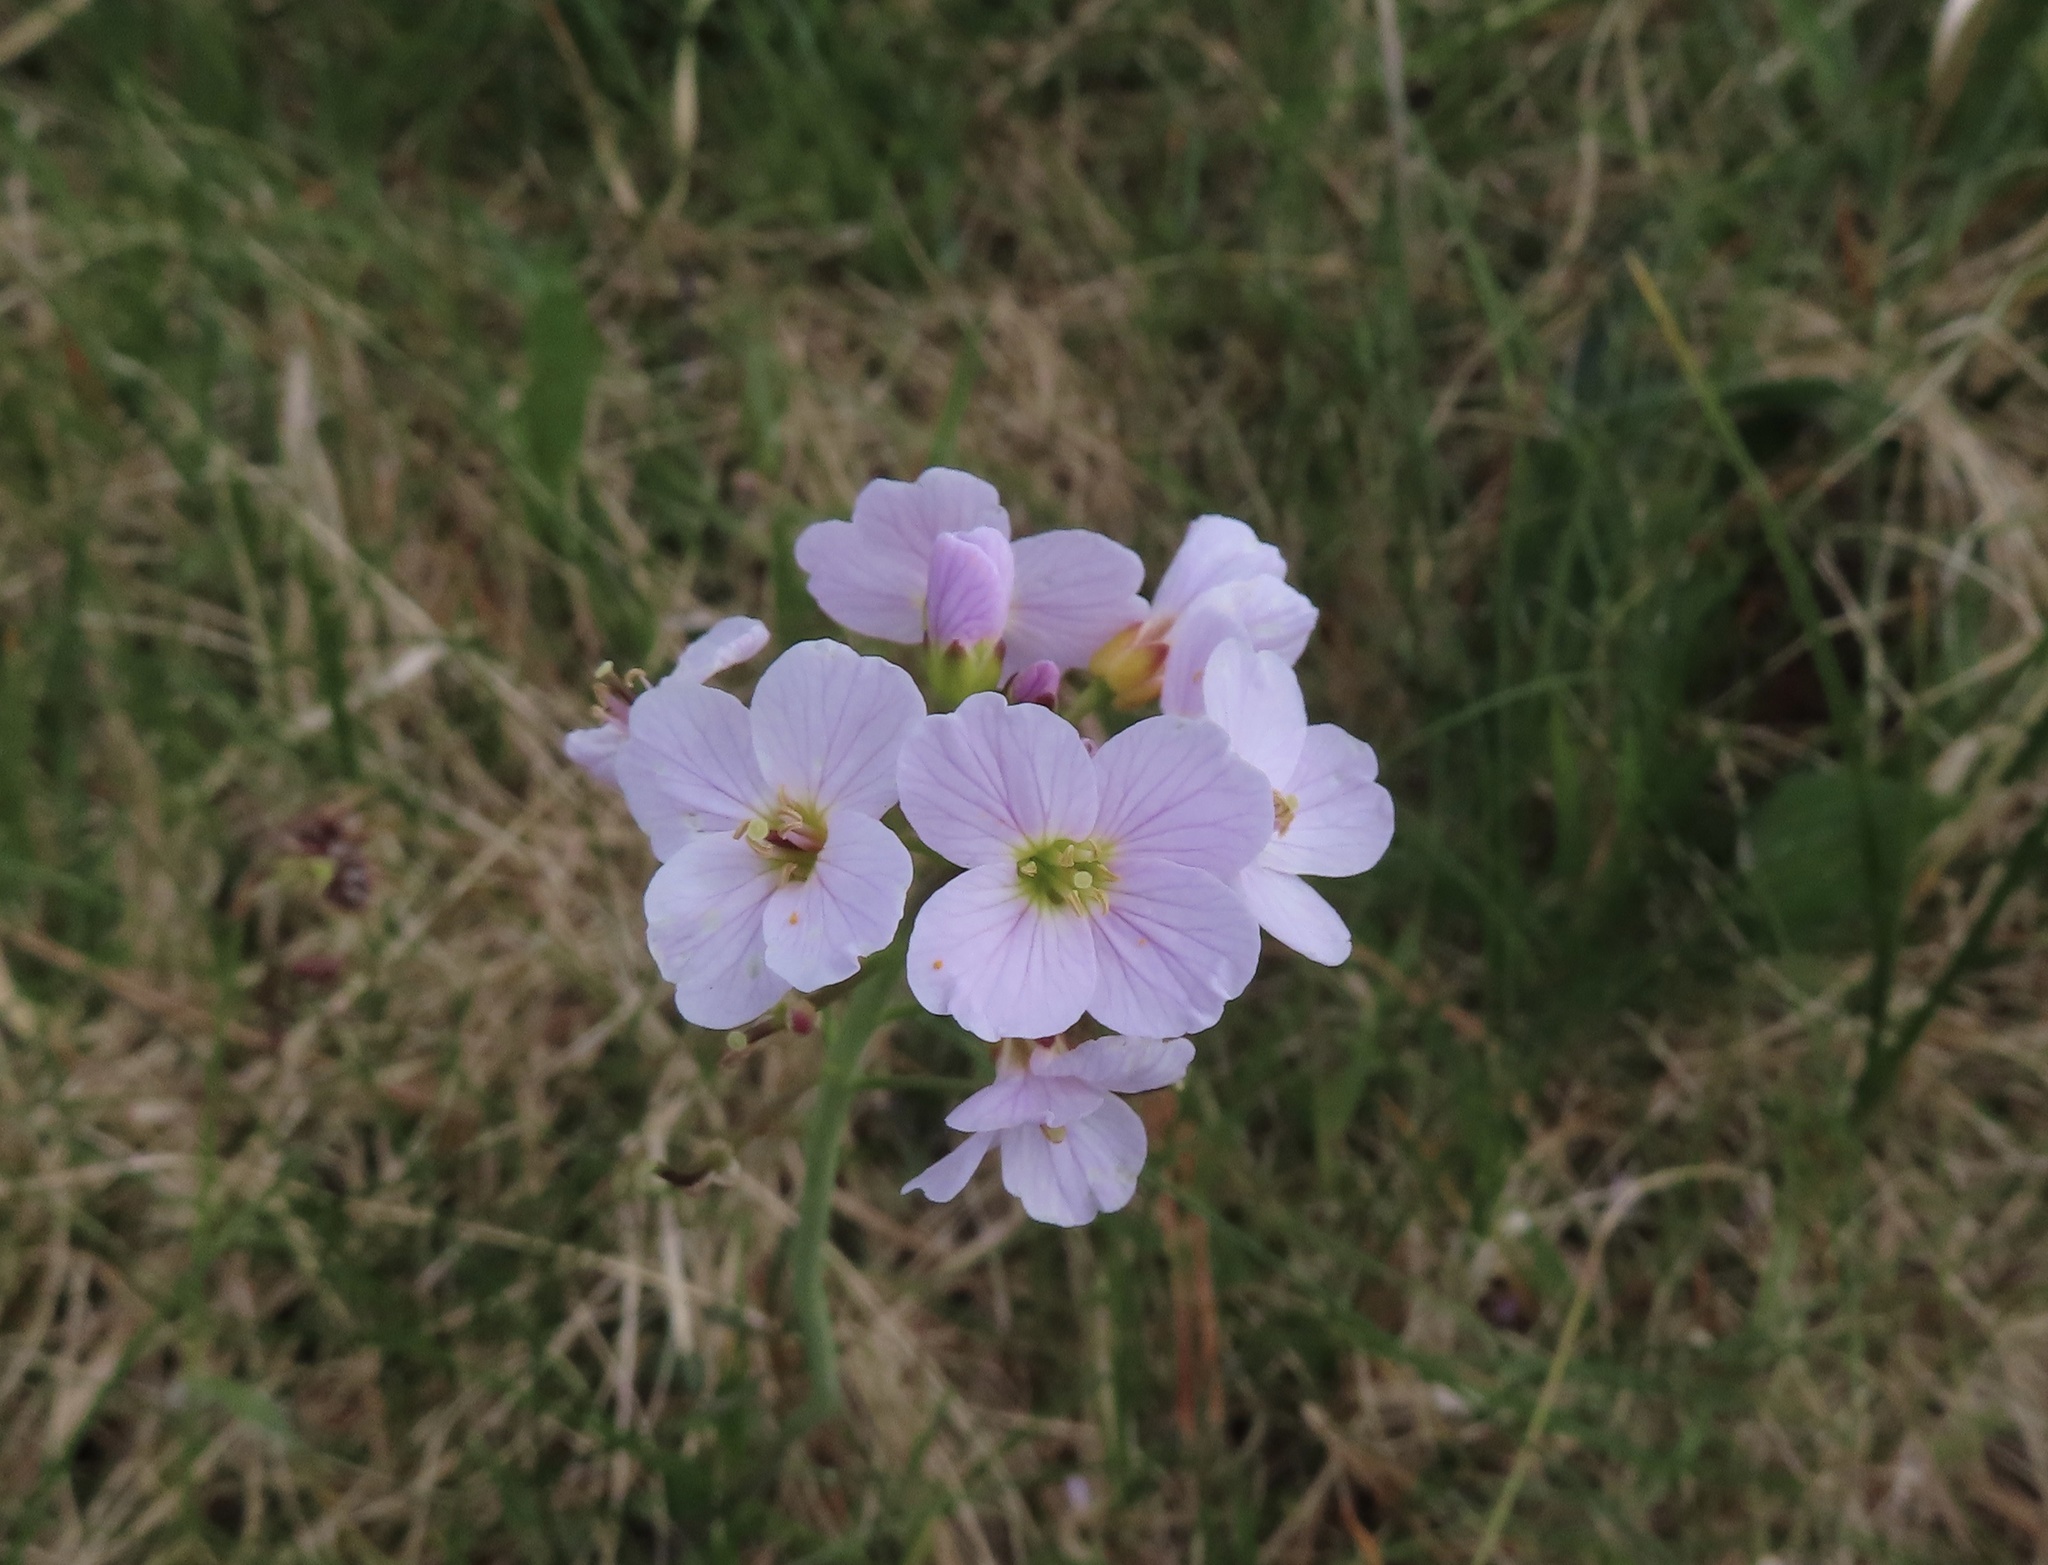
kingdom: Plantae
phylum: Tracheophyta
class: Magnoliopsida
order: Brassicales
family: Brassicaceae
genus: Cardamine
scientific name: Cardamine pratensis
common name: Cuckoo flower
